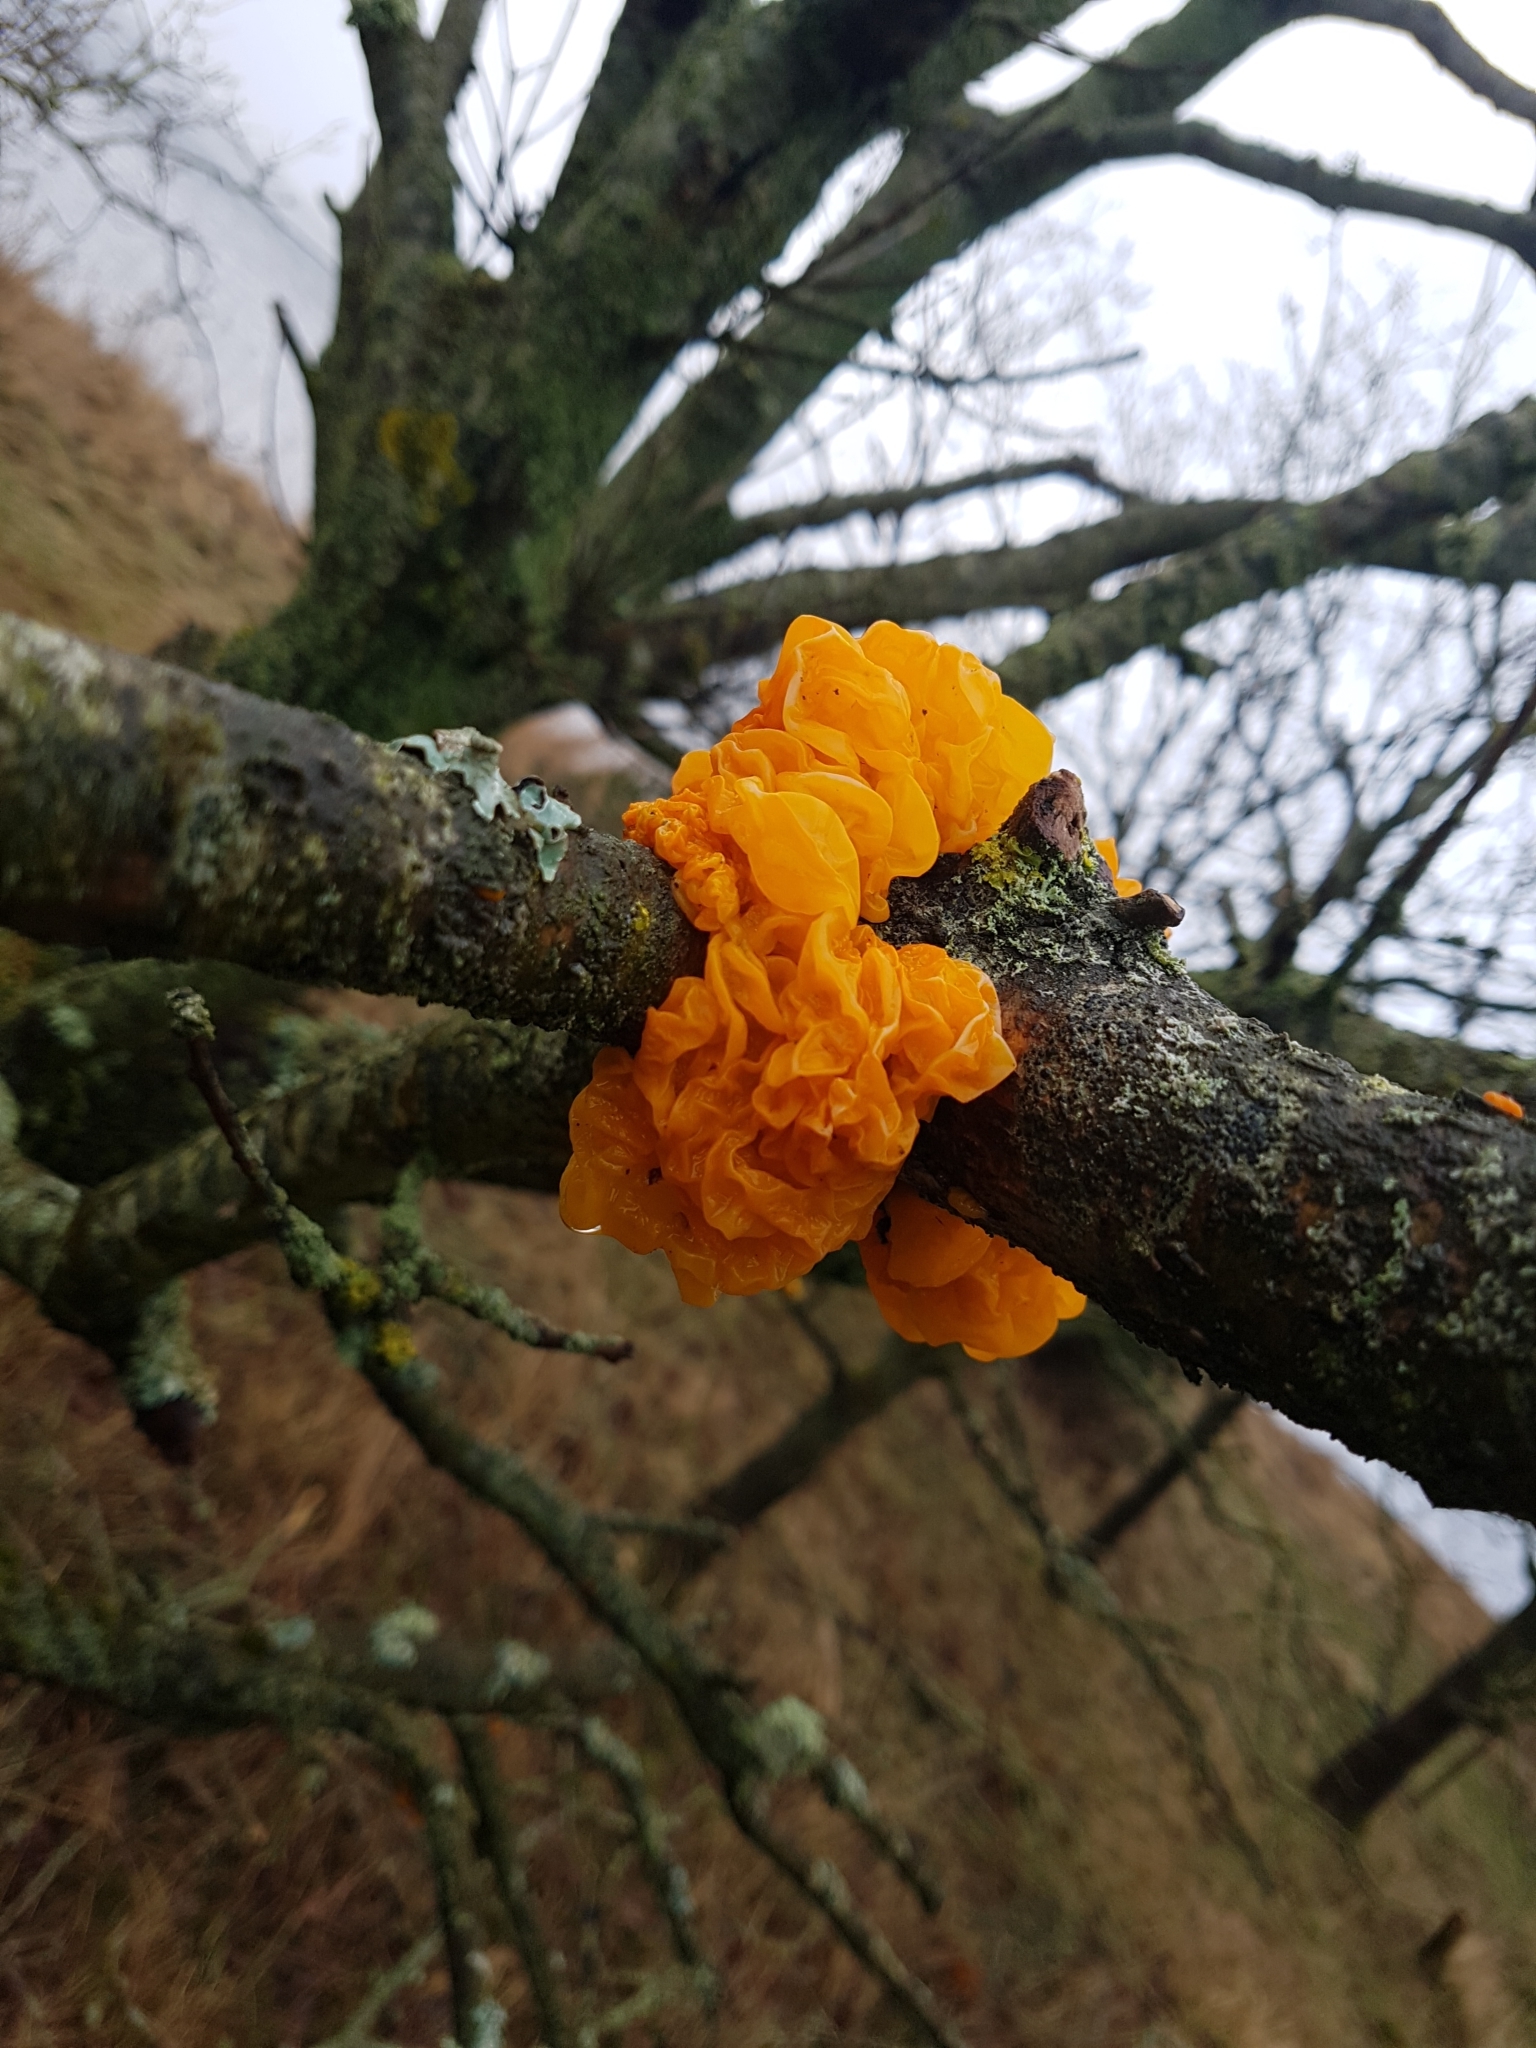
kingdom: Fungi
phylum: Basidiomycota
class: Tremellomycetes
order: Tremellales
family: Tremellaceae
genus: Tremella
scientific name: Tremella mesenterica
